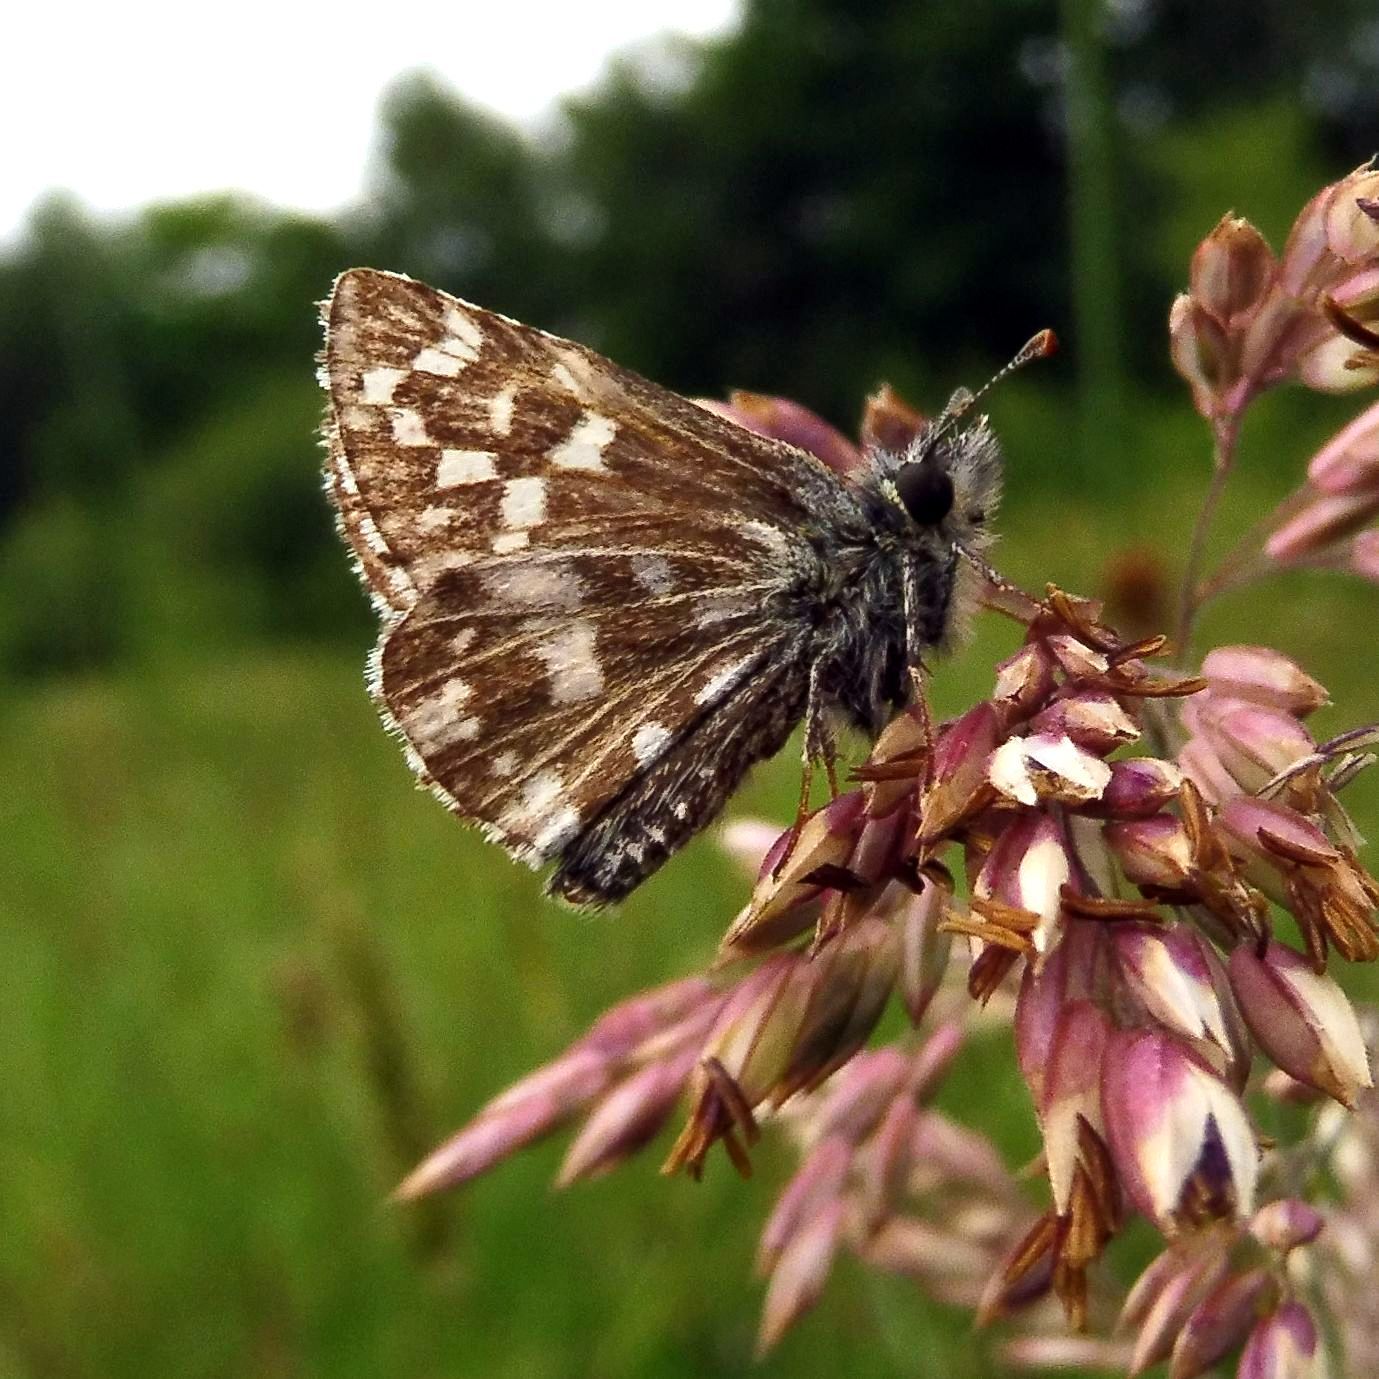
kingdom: Animalia
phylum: Arthropoda
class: Insecta
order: Lepidoptera
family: Hesperiidae
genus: Pyrgus
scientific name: Pyrgus malvae
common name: Grizzled skipper
